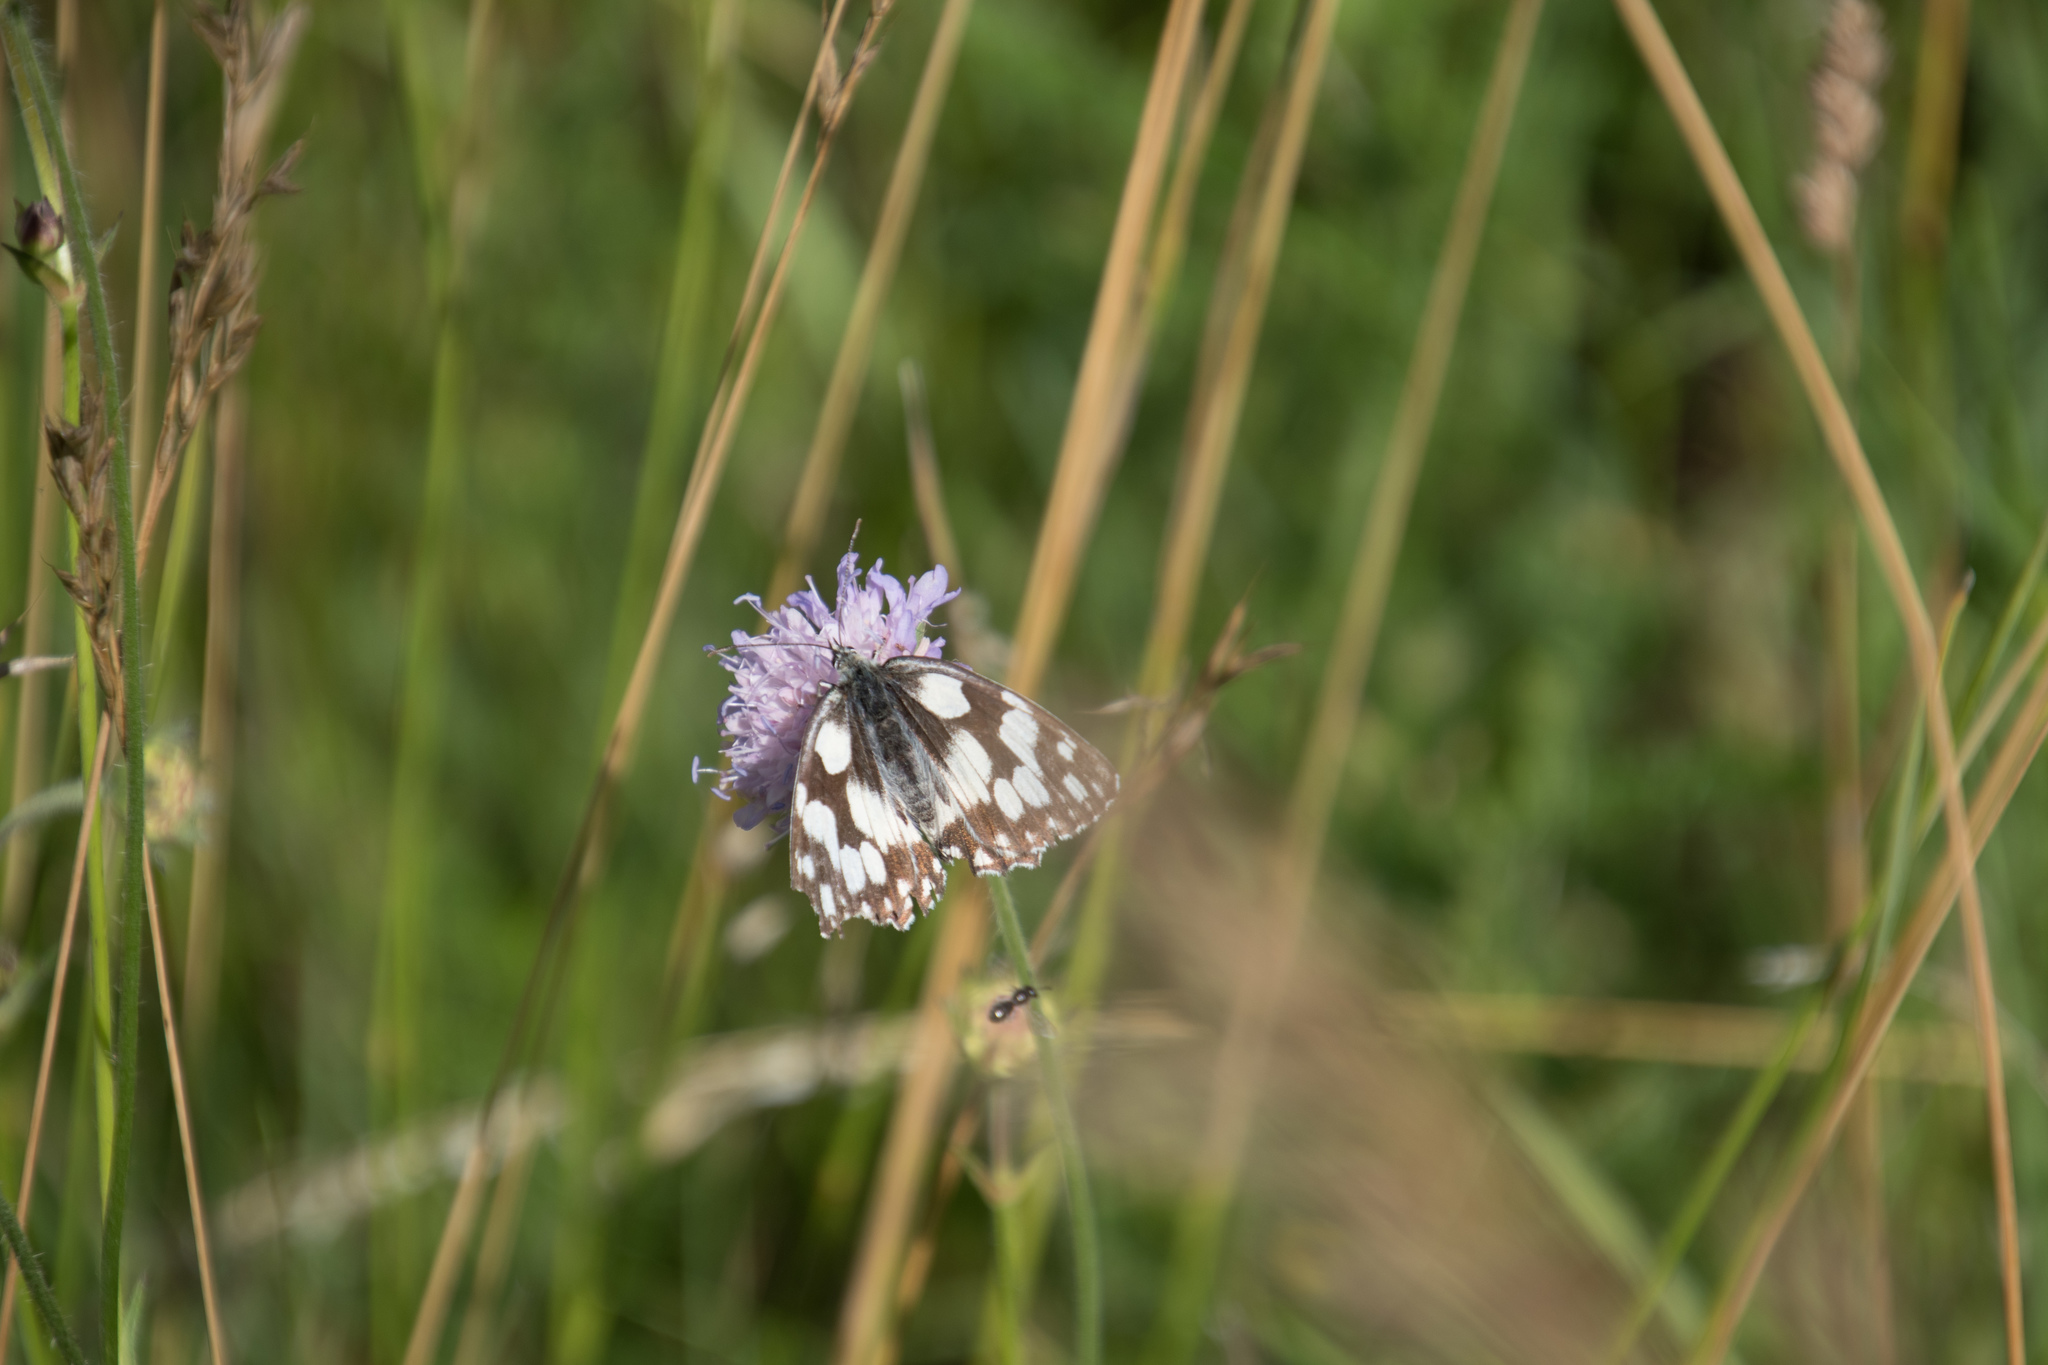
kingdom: Animalia
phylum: Arthropoda
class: Insecta
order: Lepidoptera
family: Nymphalidae
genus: Melanargia
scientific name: Melanargia galathea
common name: Marbled white
